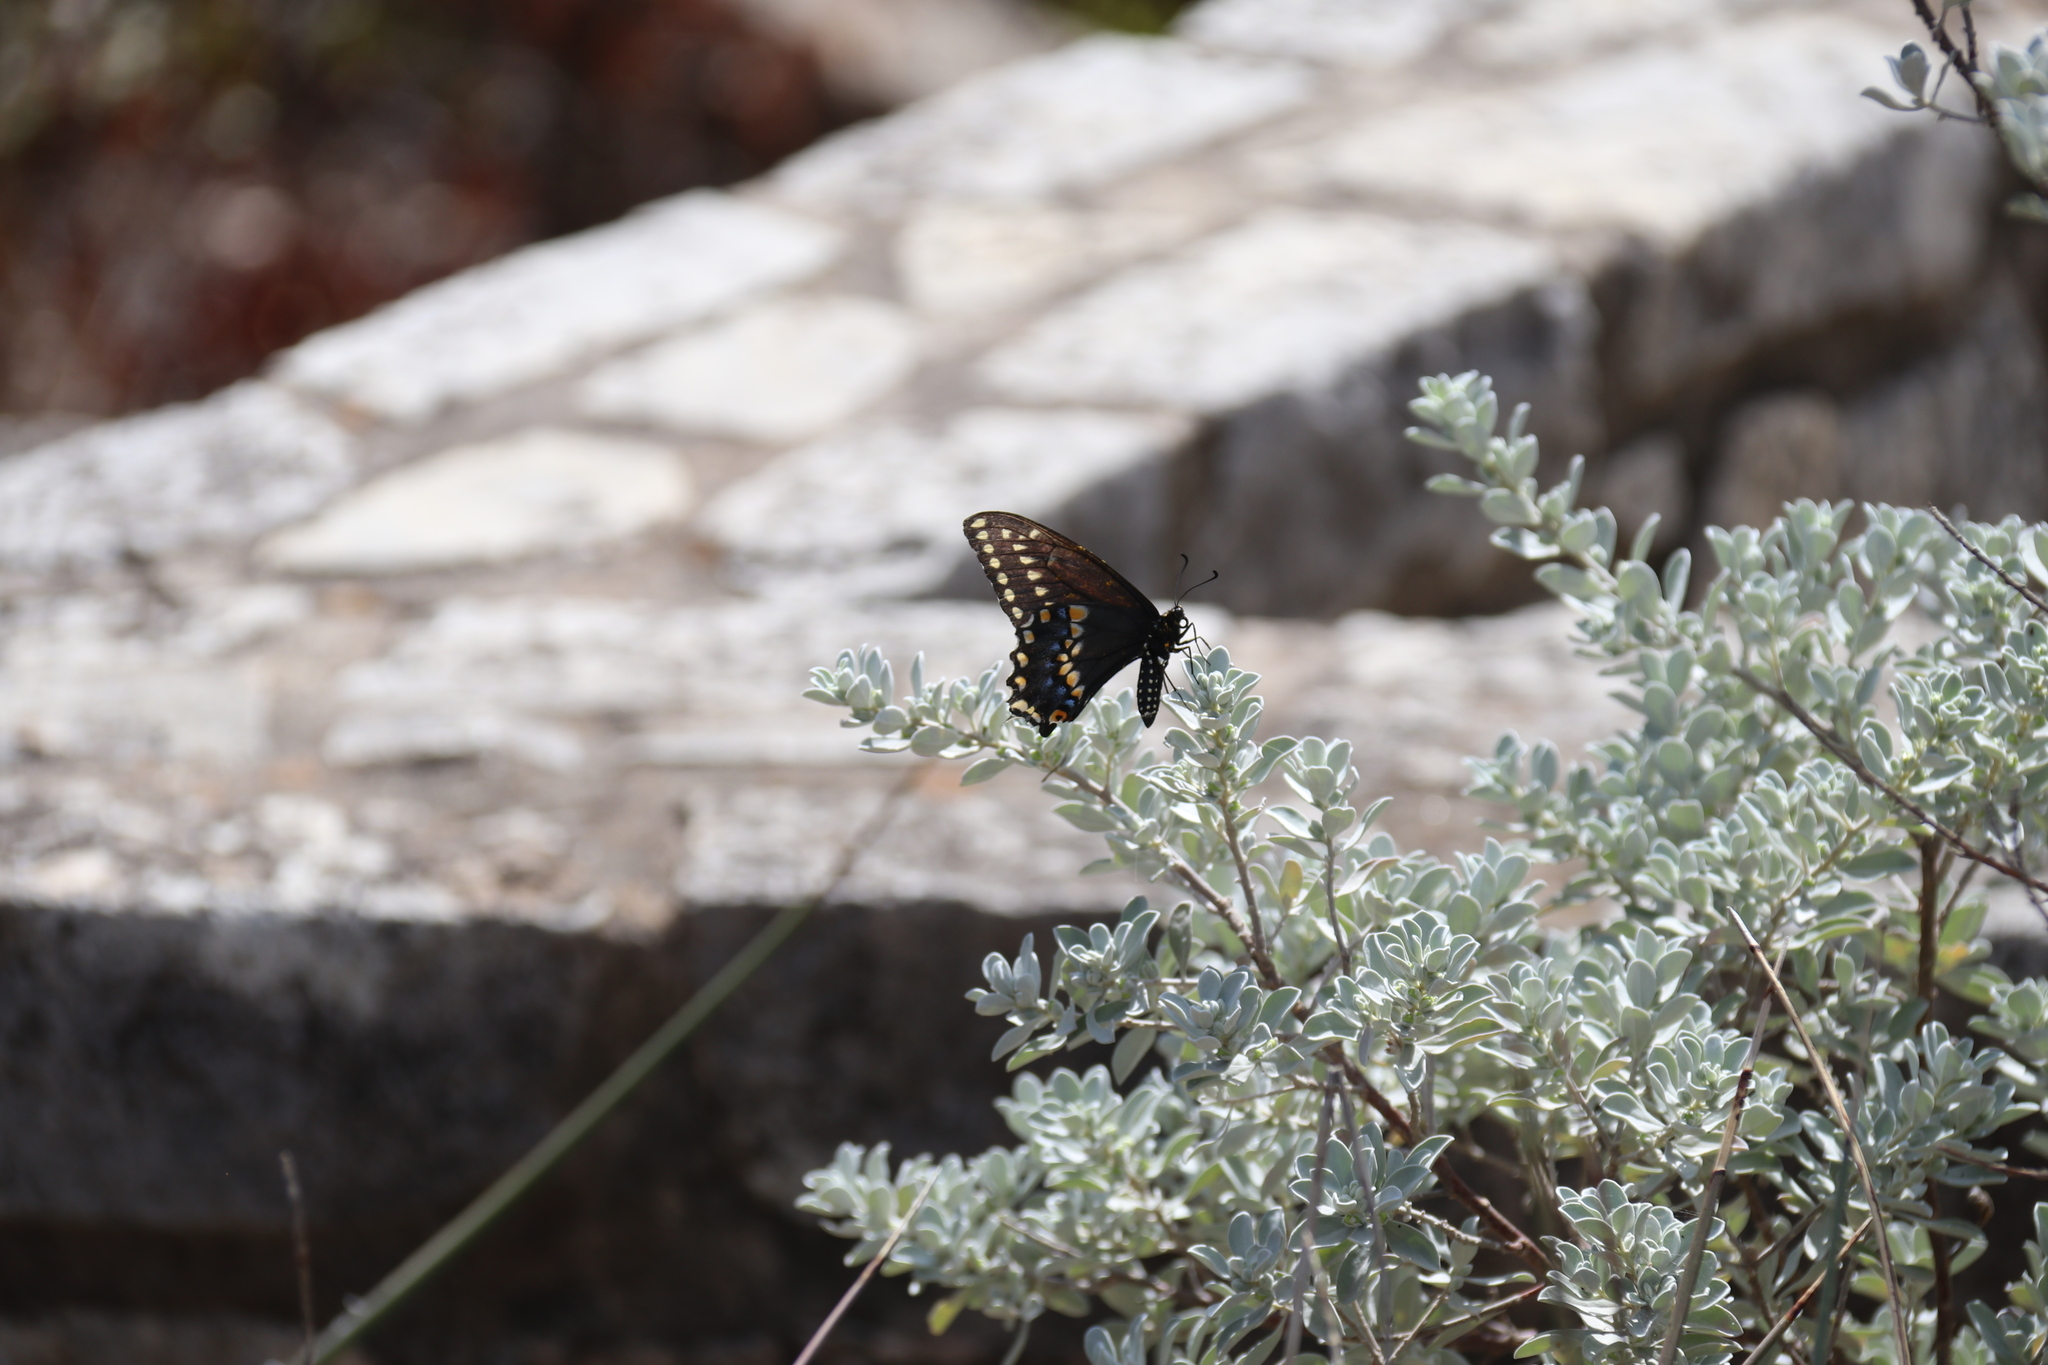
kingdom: Animalia
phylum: Arthropoda
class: Insecta
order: Lepidoptera
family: Papilionidae
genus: Papilio
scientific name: Papilio polyxenes
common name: Black swallowtail
